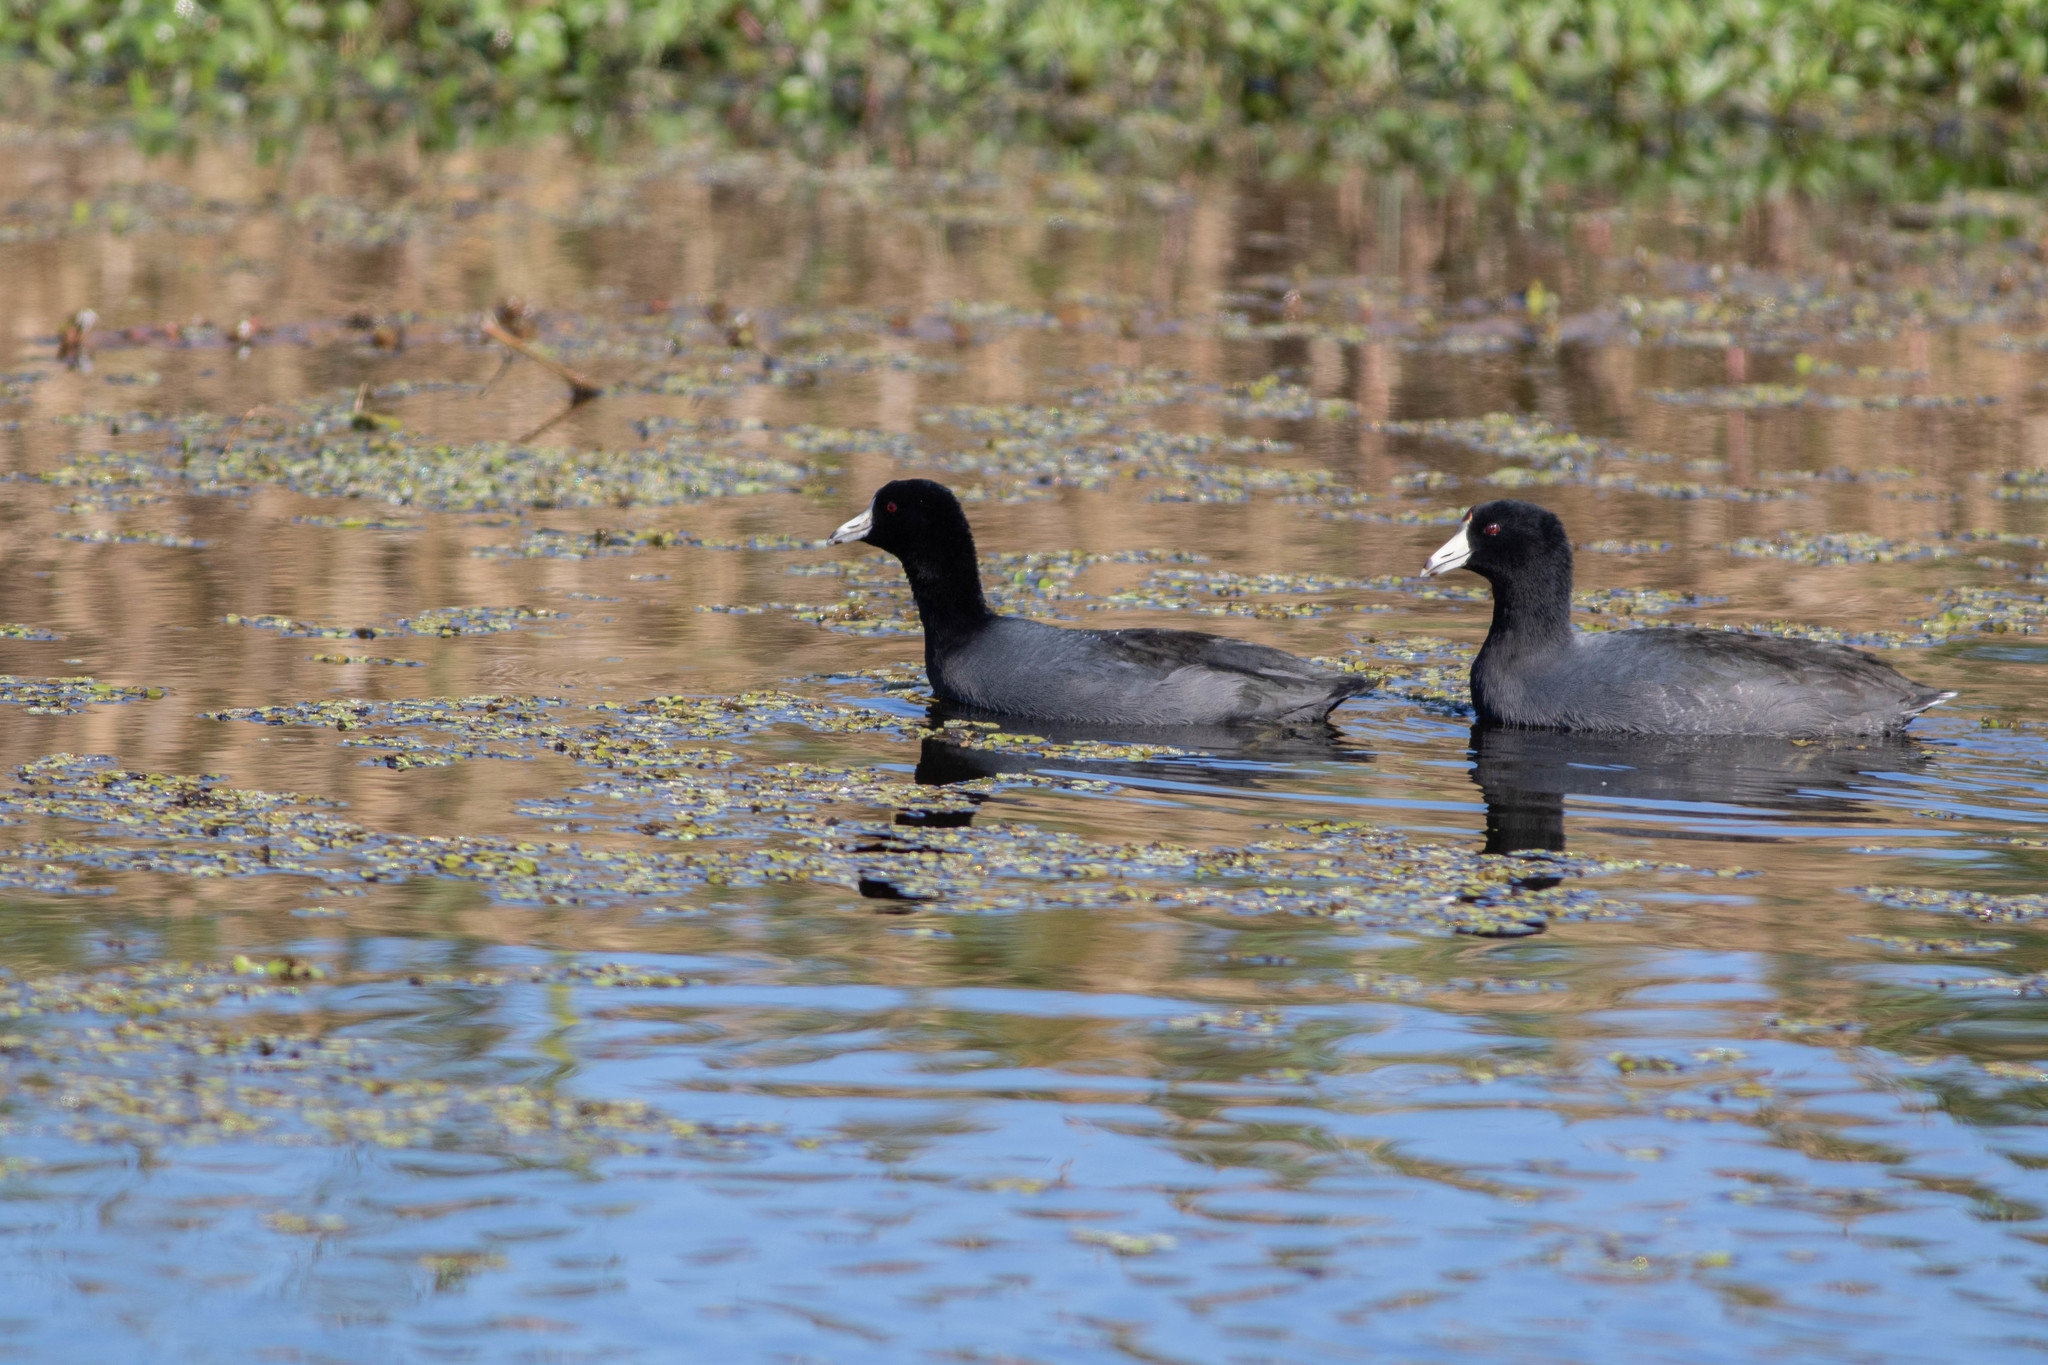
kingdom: Animalia
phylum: Chordata
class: Aves
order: Gruiformes
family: Rallidae
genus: Fulica
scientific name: Fulica americana
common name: American coot
